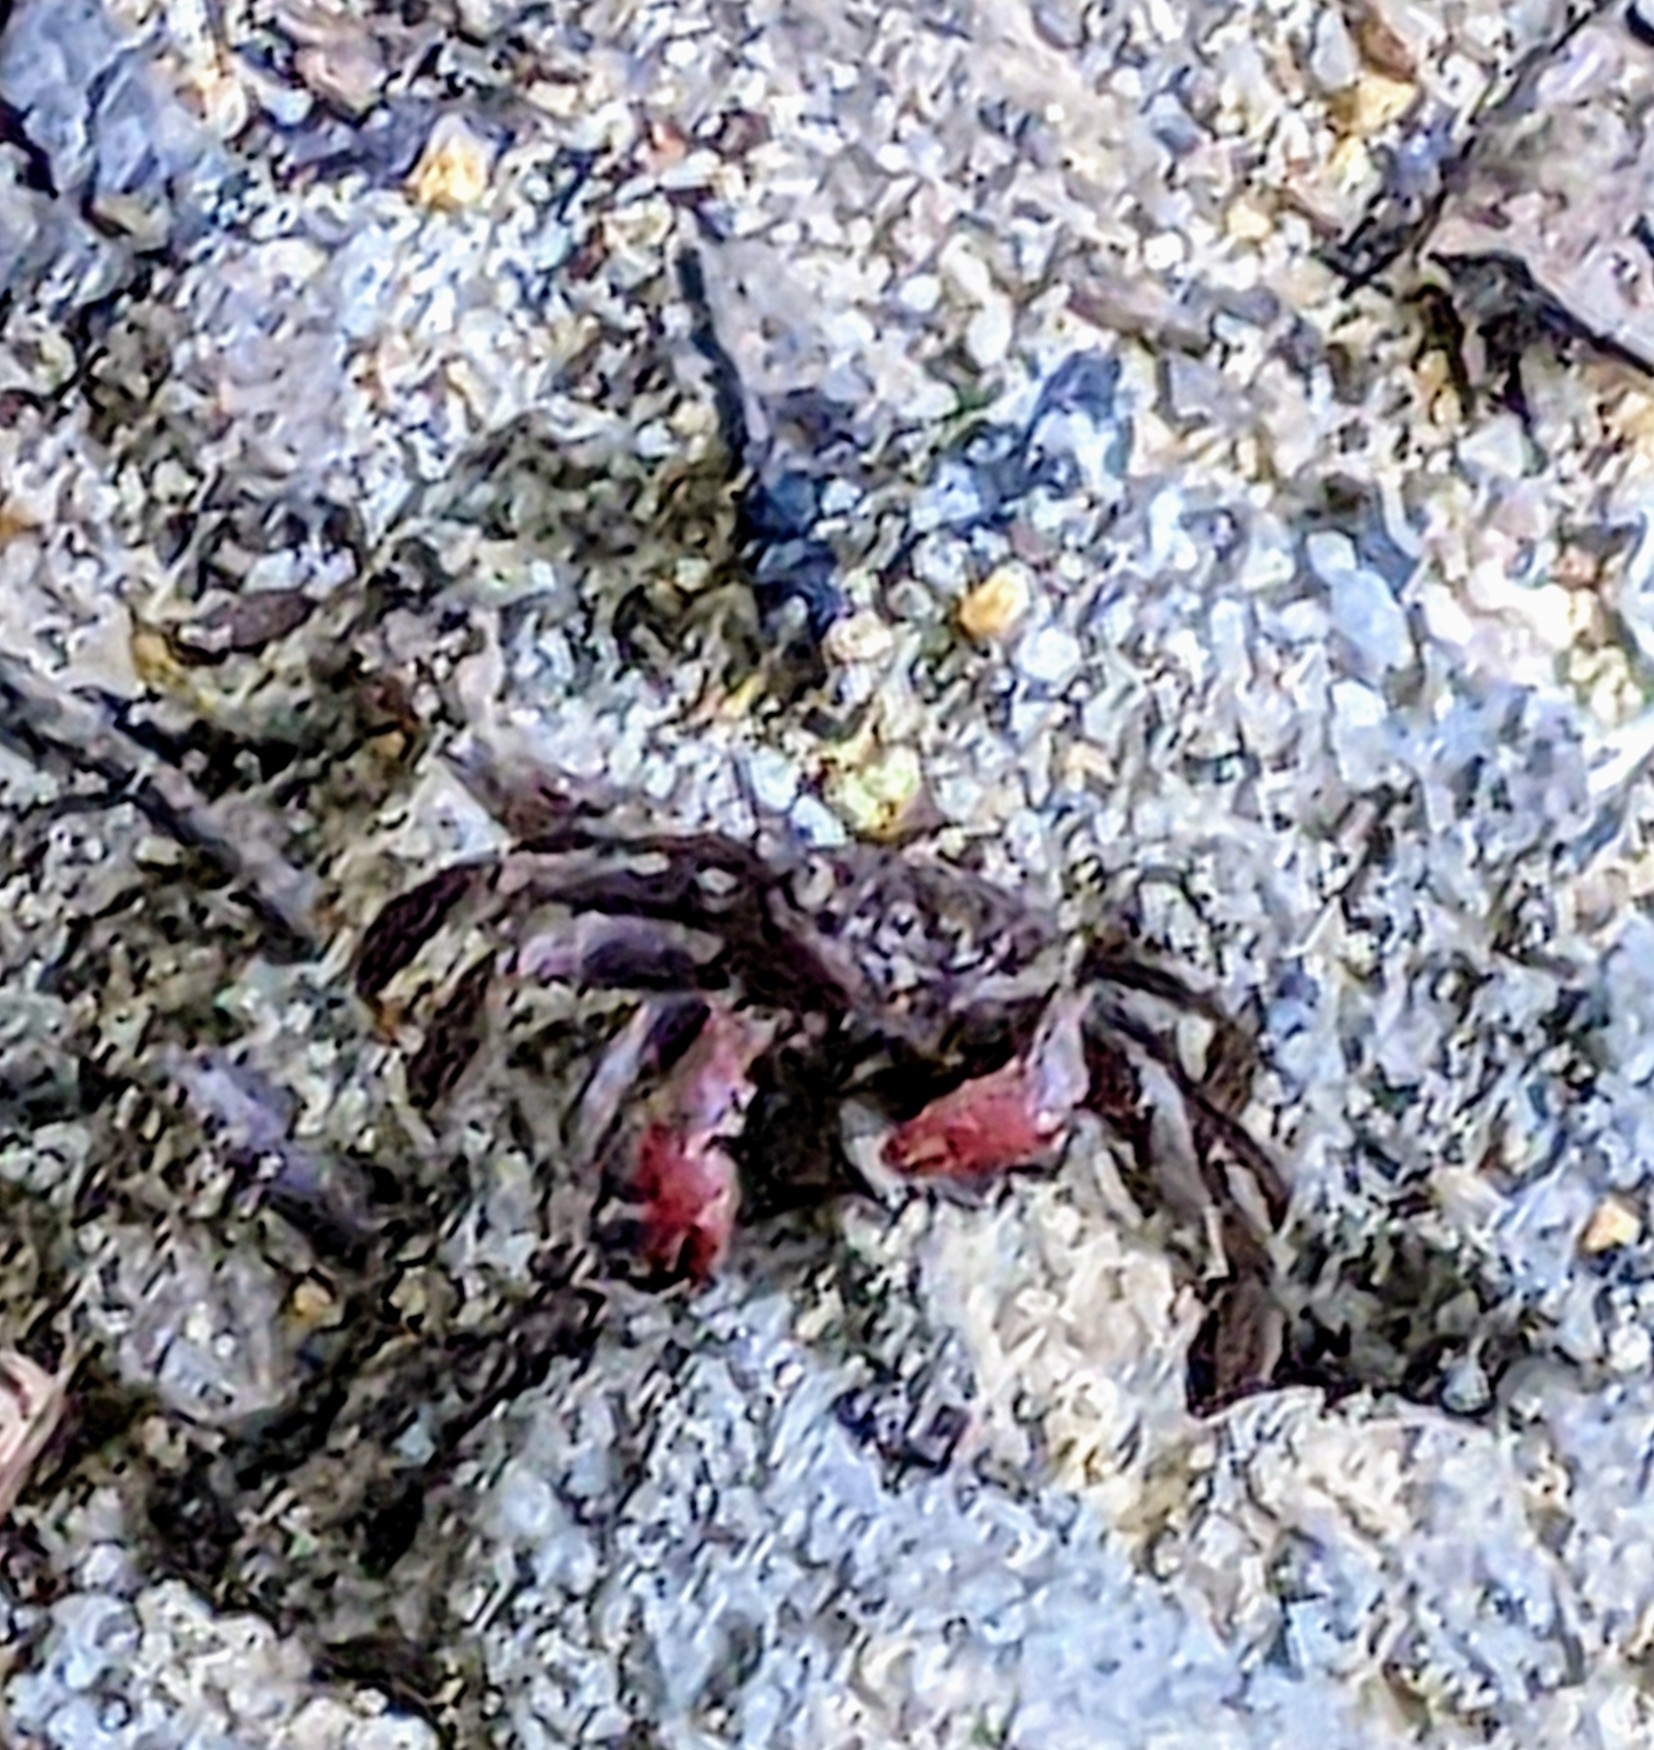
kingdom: Animalia
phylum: Arthropoda
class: Malacostraca
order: Decapoda
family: Sesarmidae
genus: Episesarma
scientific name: Episesarma chentongense
